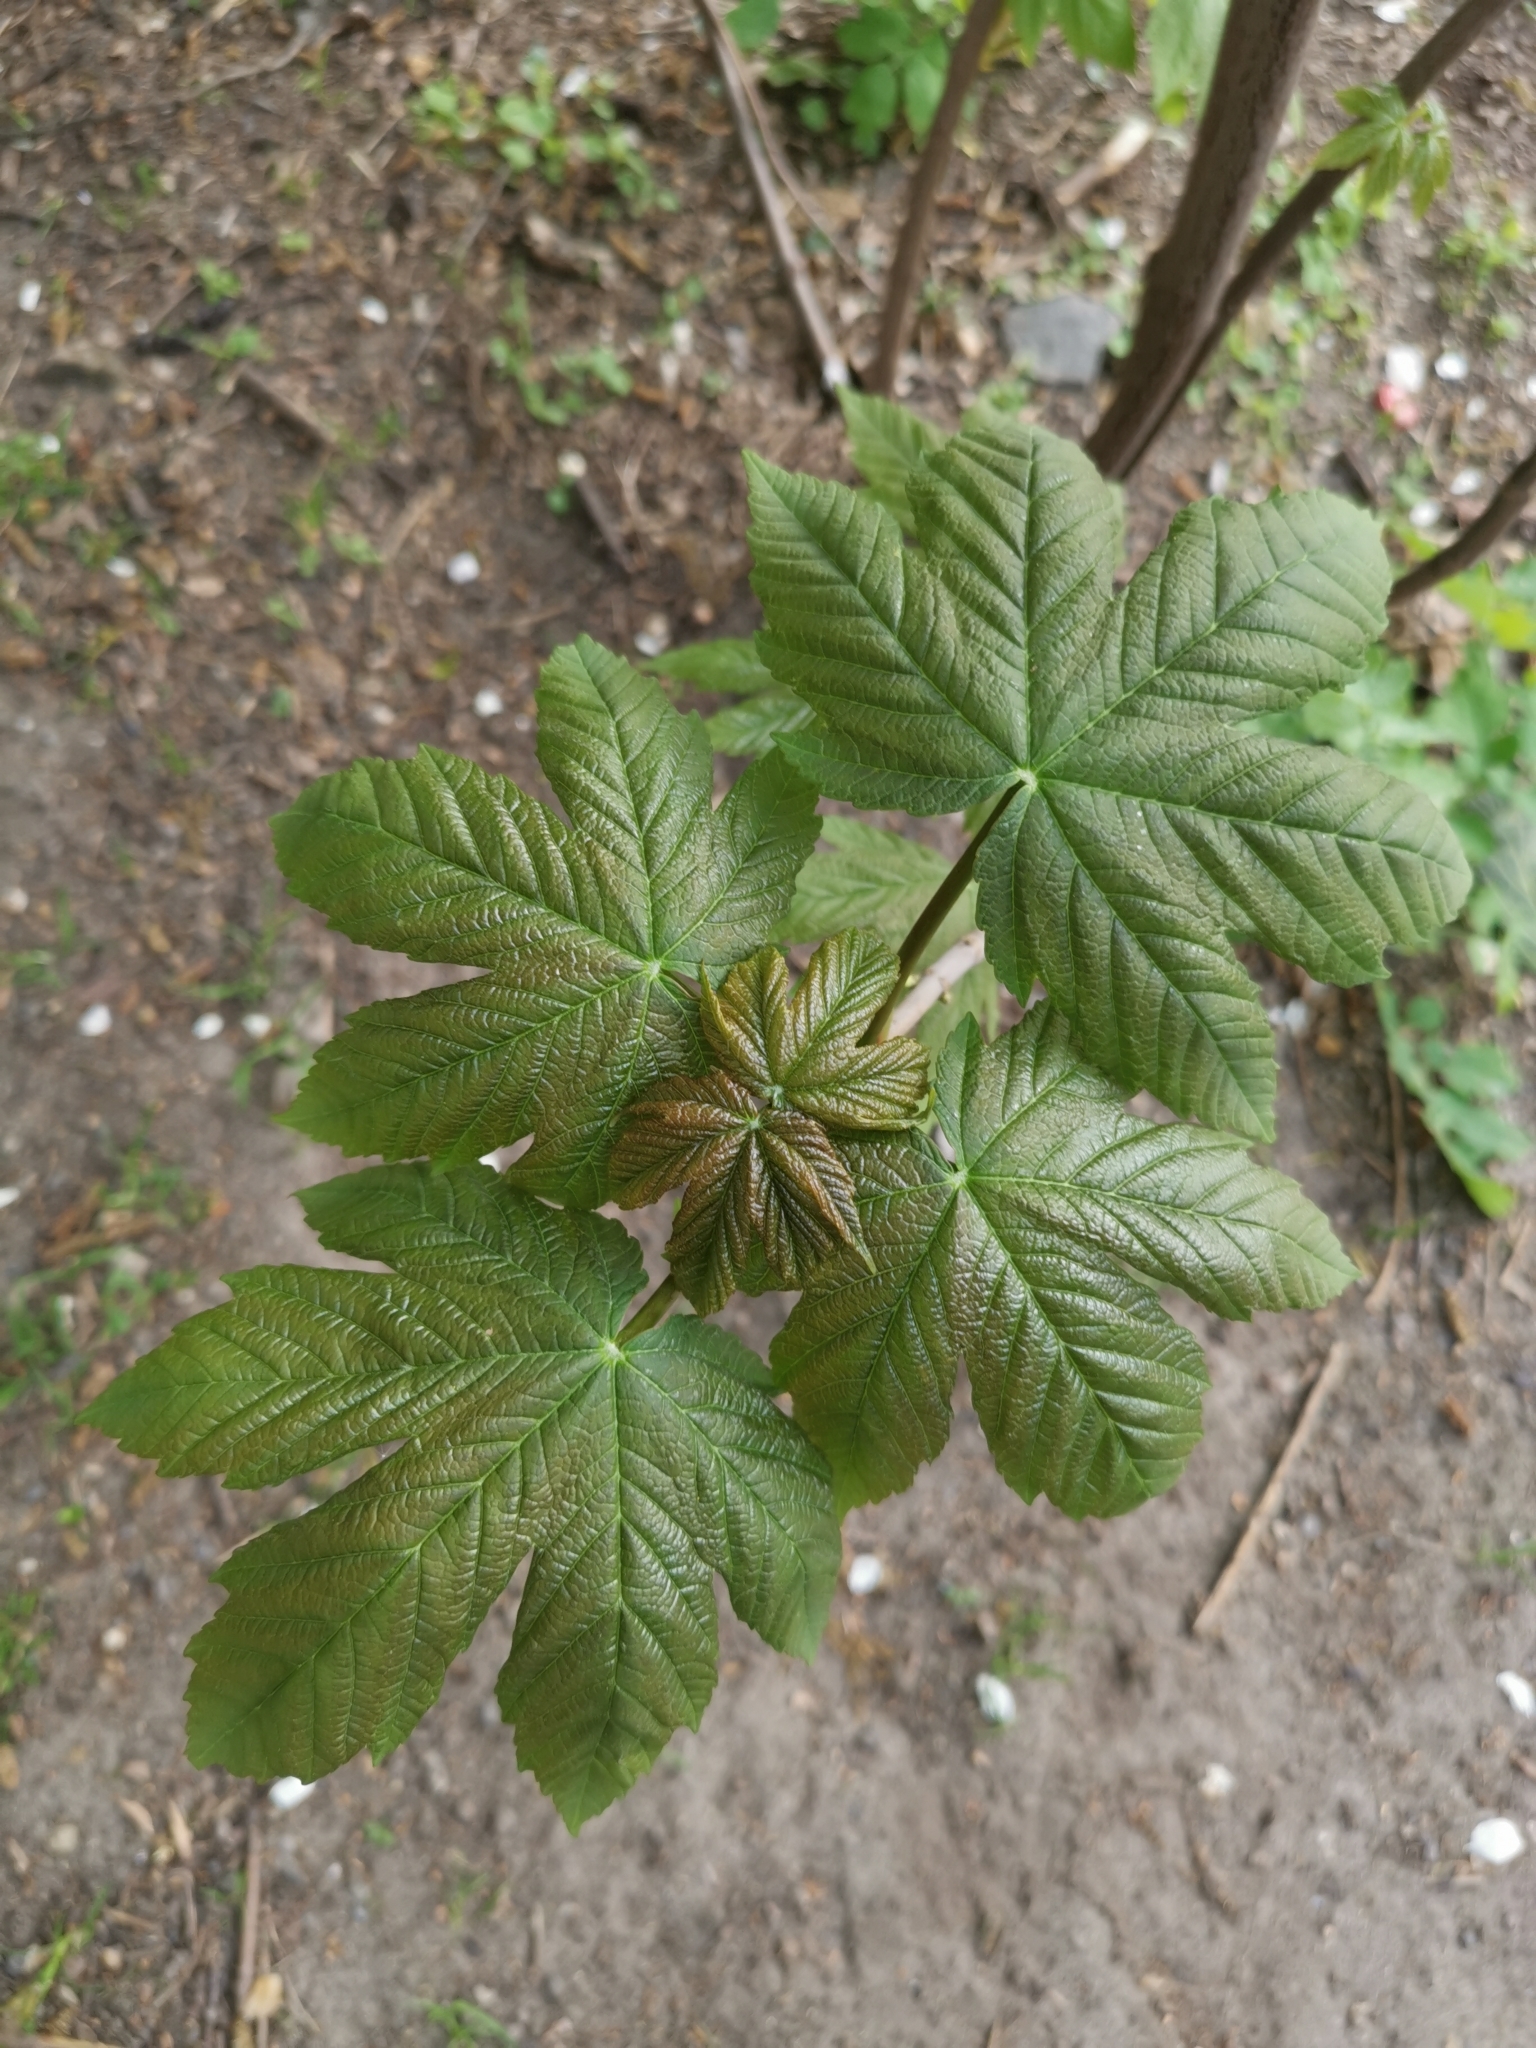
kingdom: Plantae
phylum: Tracheophyta
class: Magnoliopsida
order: Sapindales
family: Sapindaceae
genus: Acer
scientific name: Acer pseudoplatanus
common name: Sycamore
